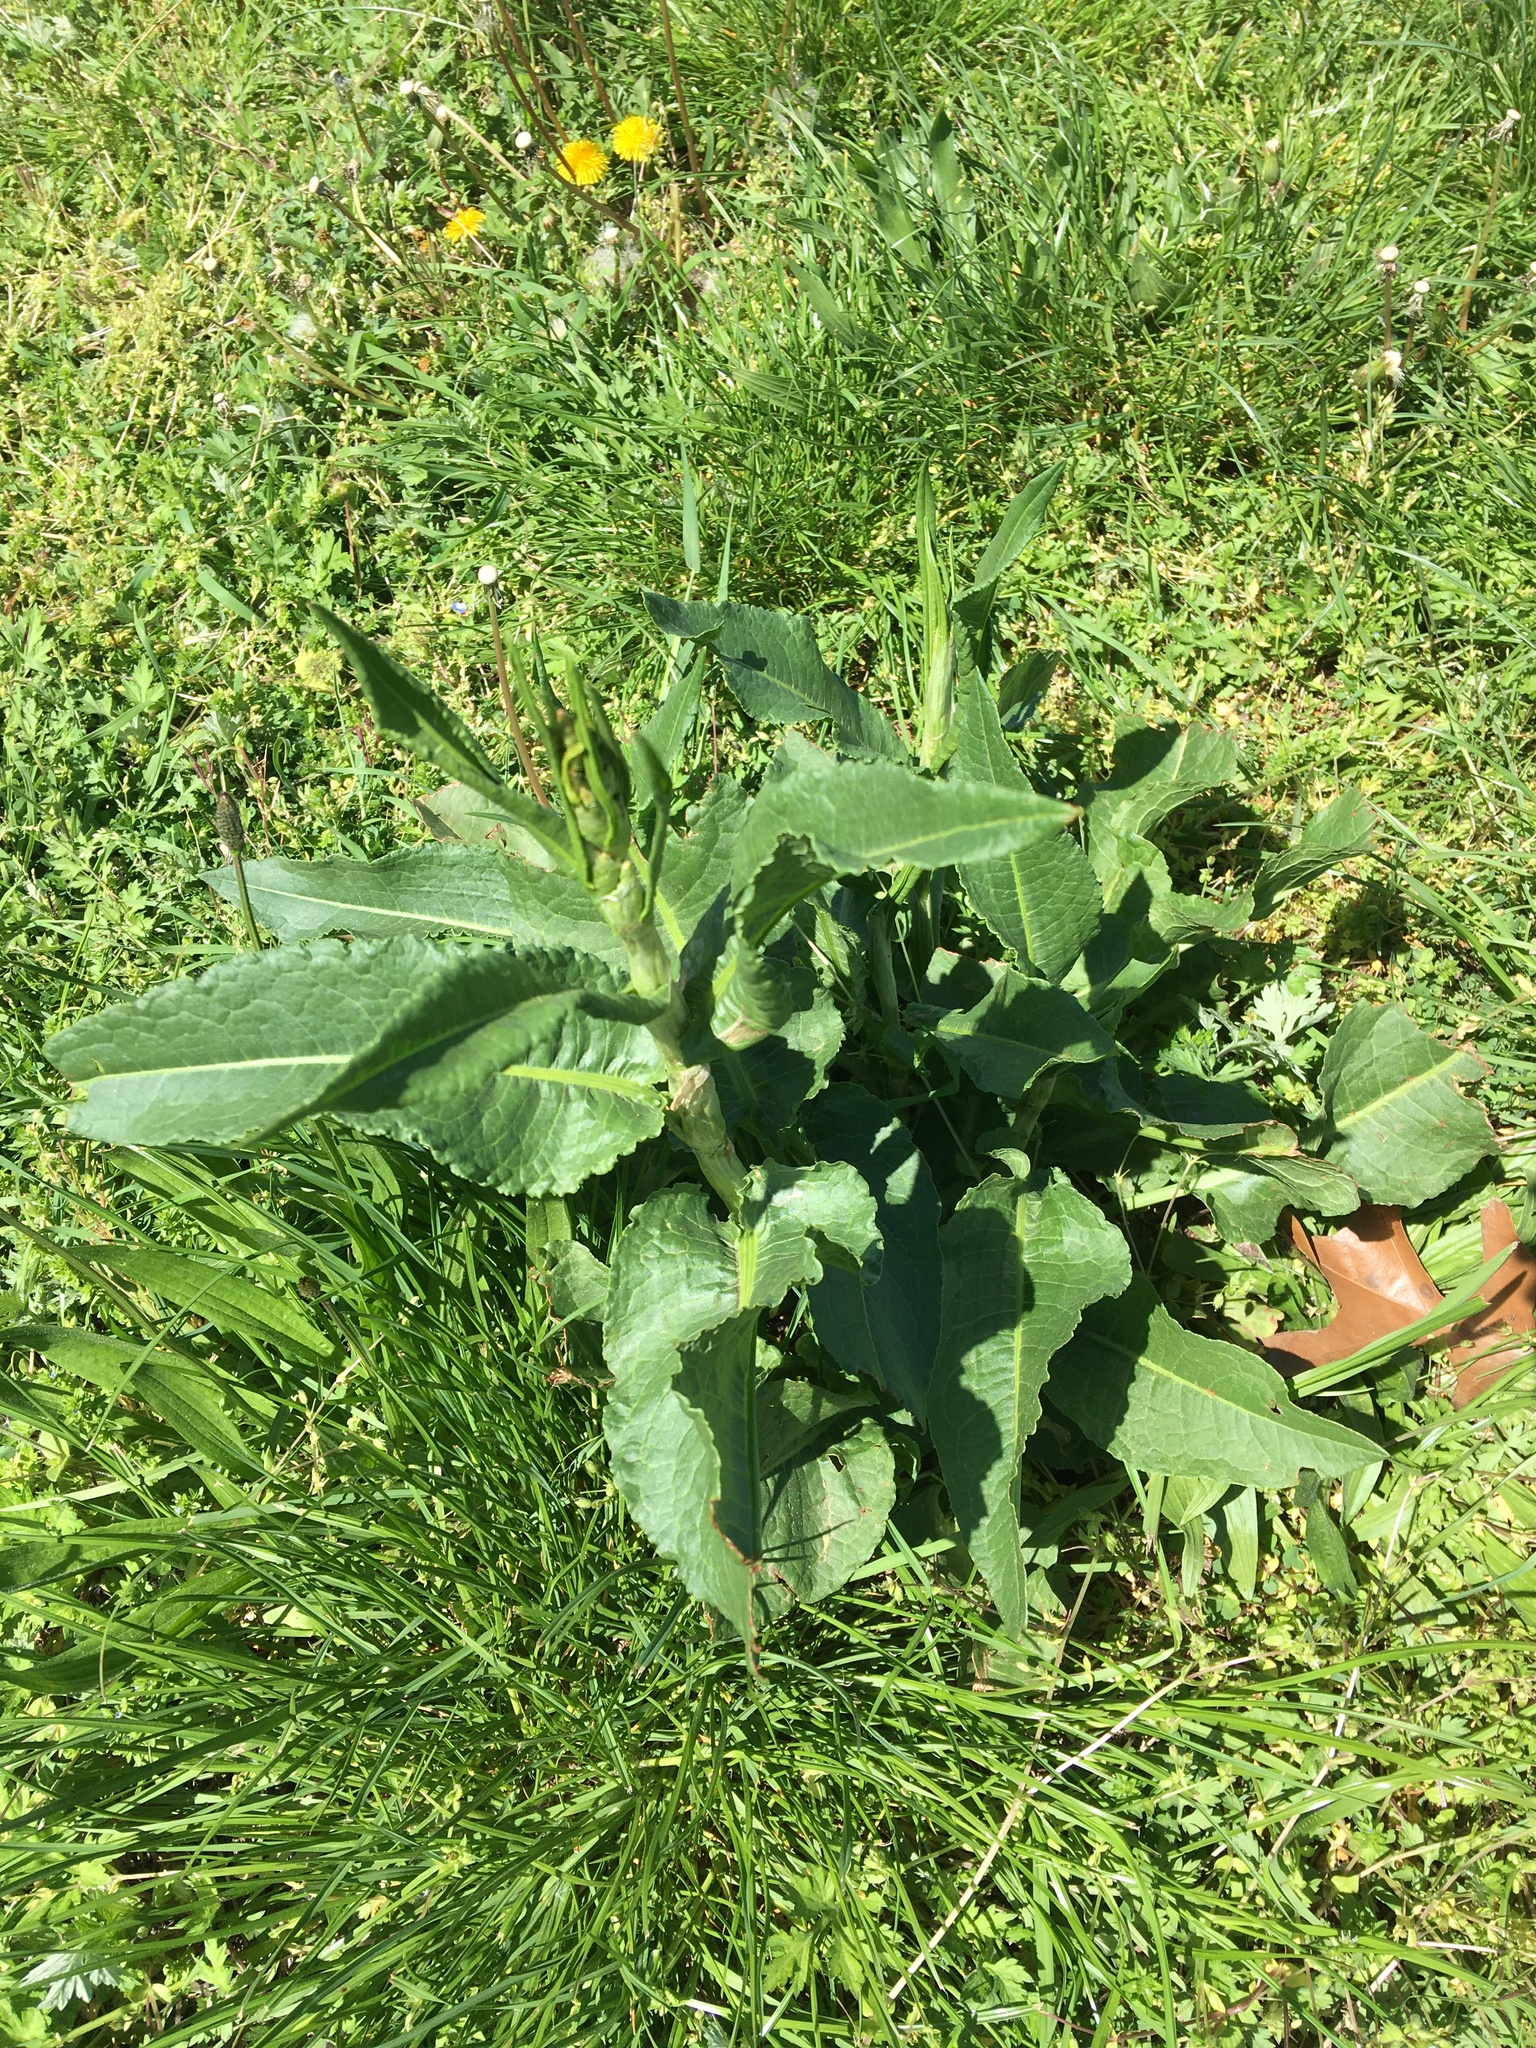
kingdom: Plantae
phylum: Tracheophyta
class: Magnoliopsida
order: Caryophyllales
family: Polygonaceae
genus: Rumex
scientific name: Rumex obtusifolius
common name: Bitter dock
